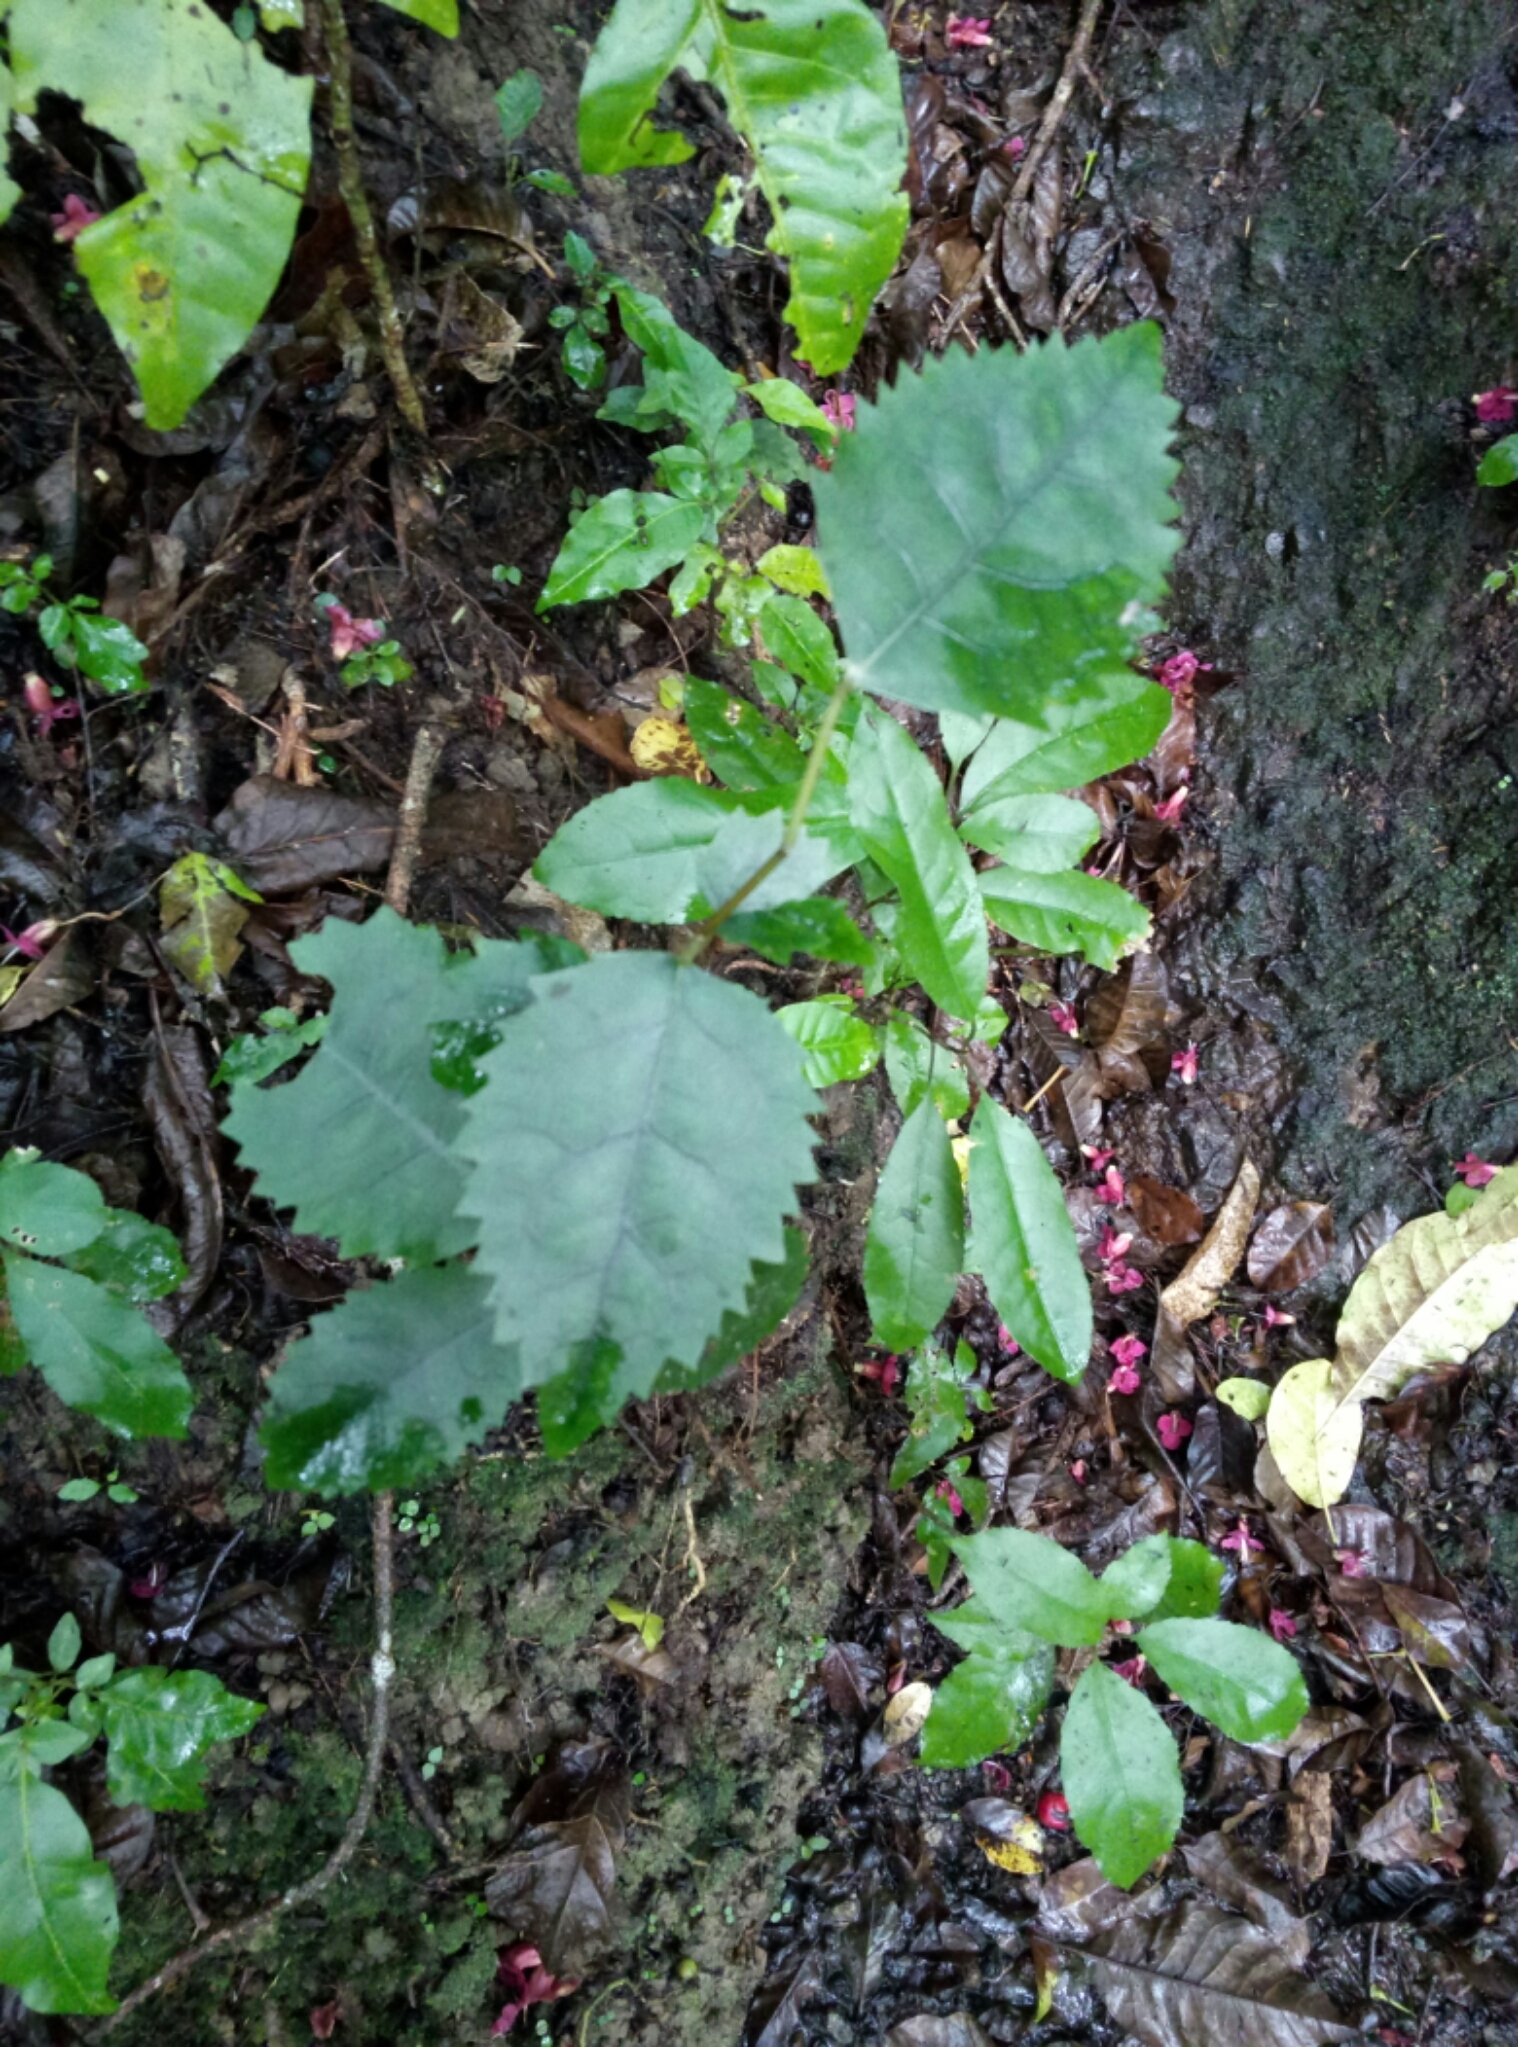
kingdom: Plantae
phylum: Tracheophyta
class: Magnoliopsida
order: Malvales
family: Malvaceae
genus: Hoheria
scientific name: Hoheria populnea
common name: Lacebark
